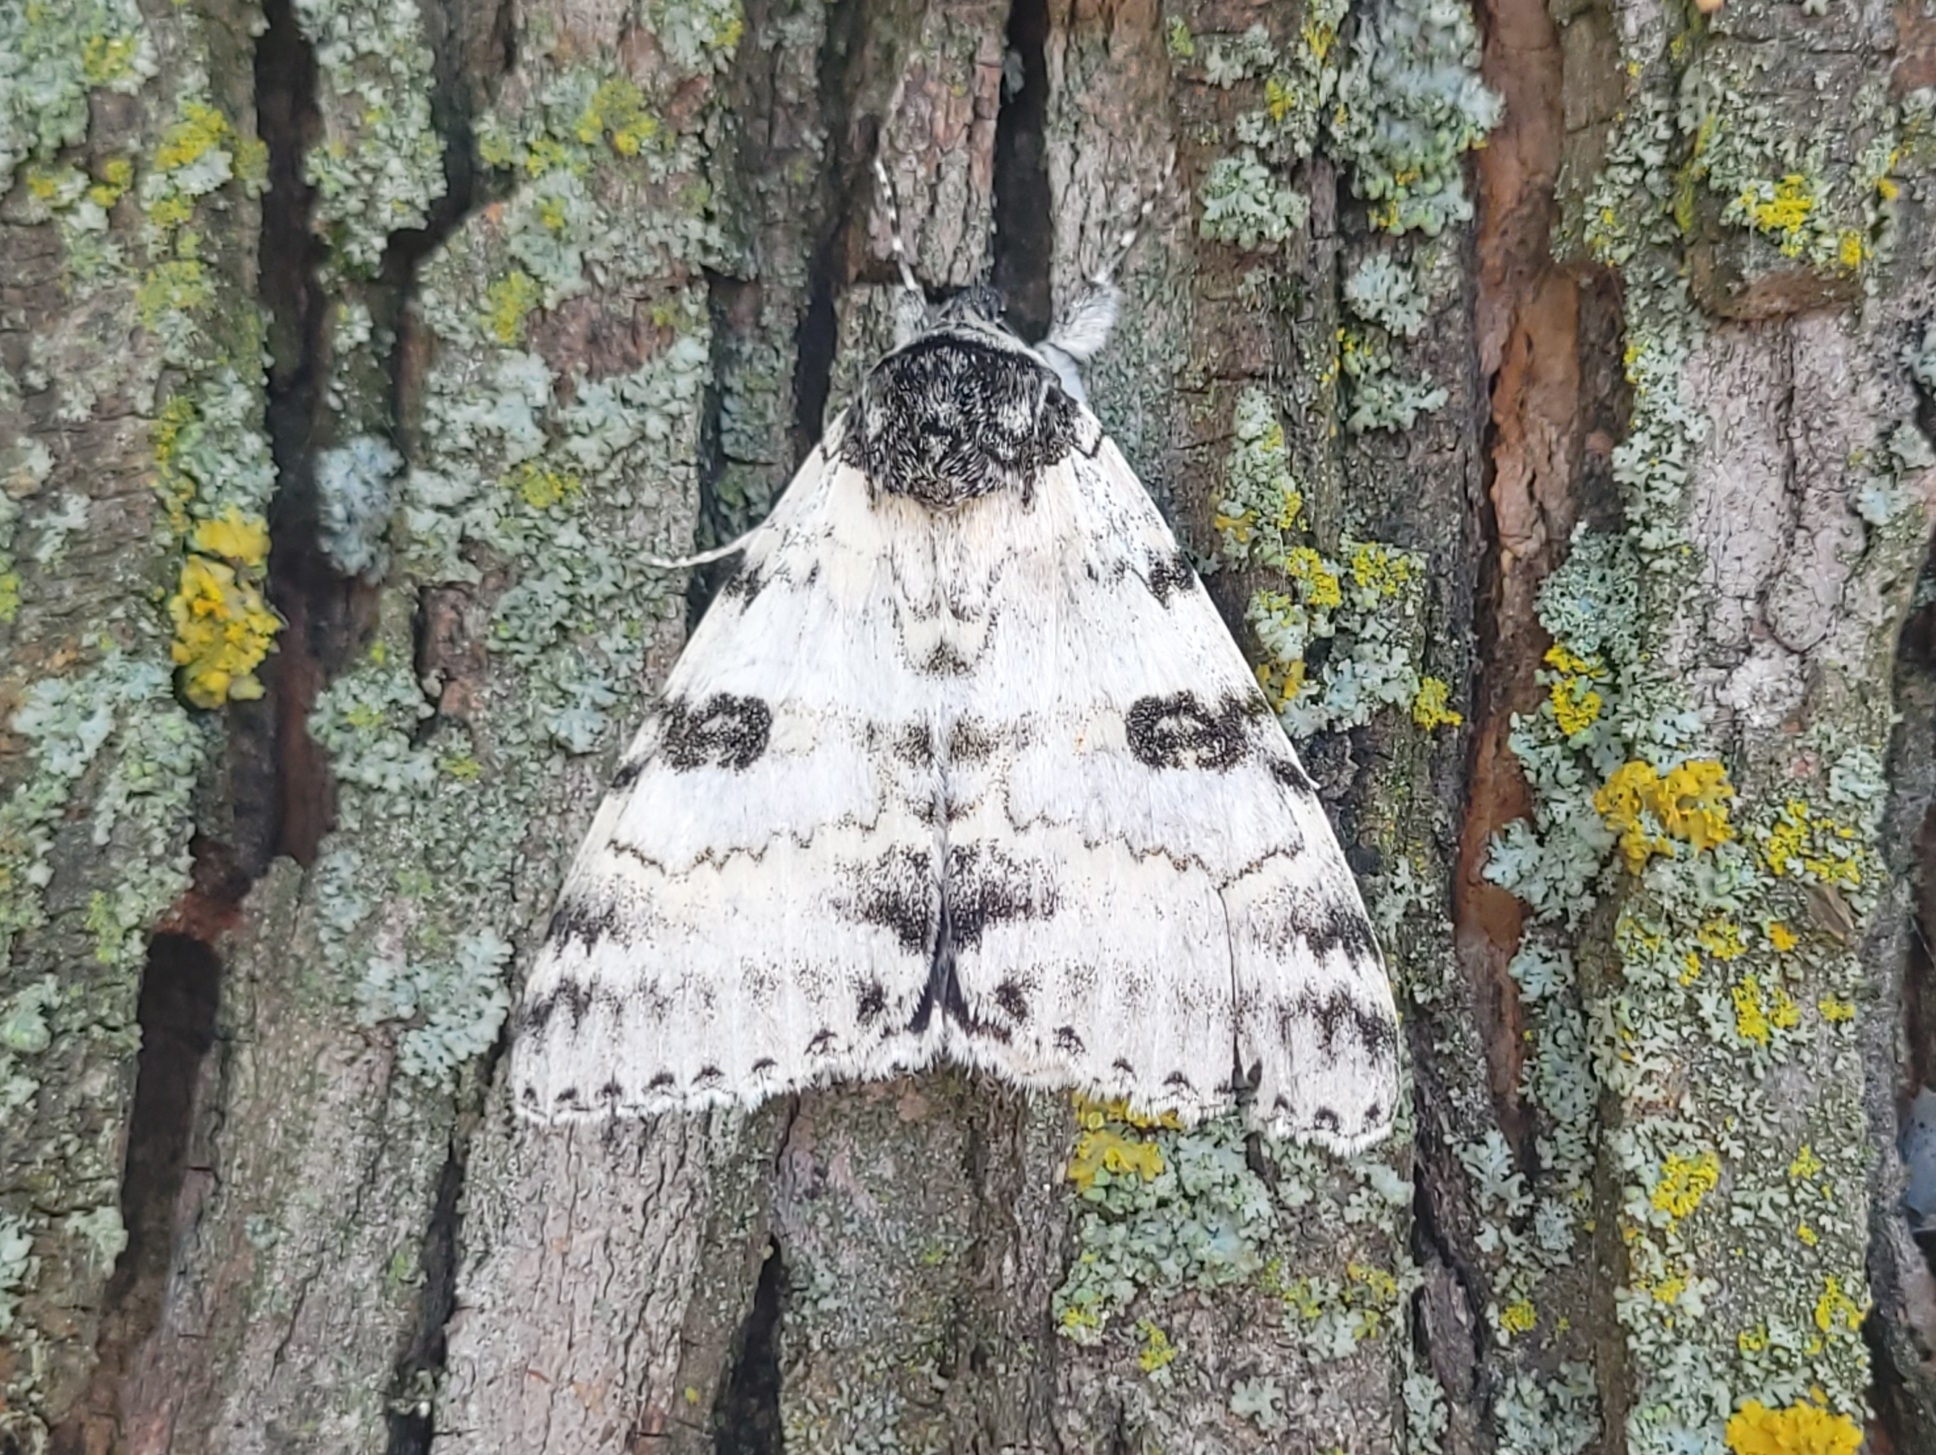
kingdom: Animalia
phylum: Arthropoda
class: Insecta
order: Lepidoptera
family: Erebidae
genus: Catocala
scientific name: Catocala relicta
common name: White underwing
